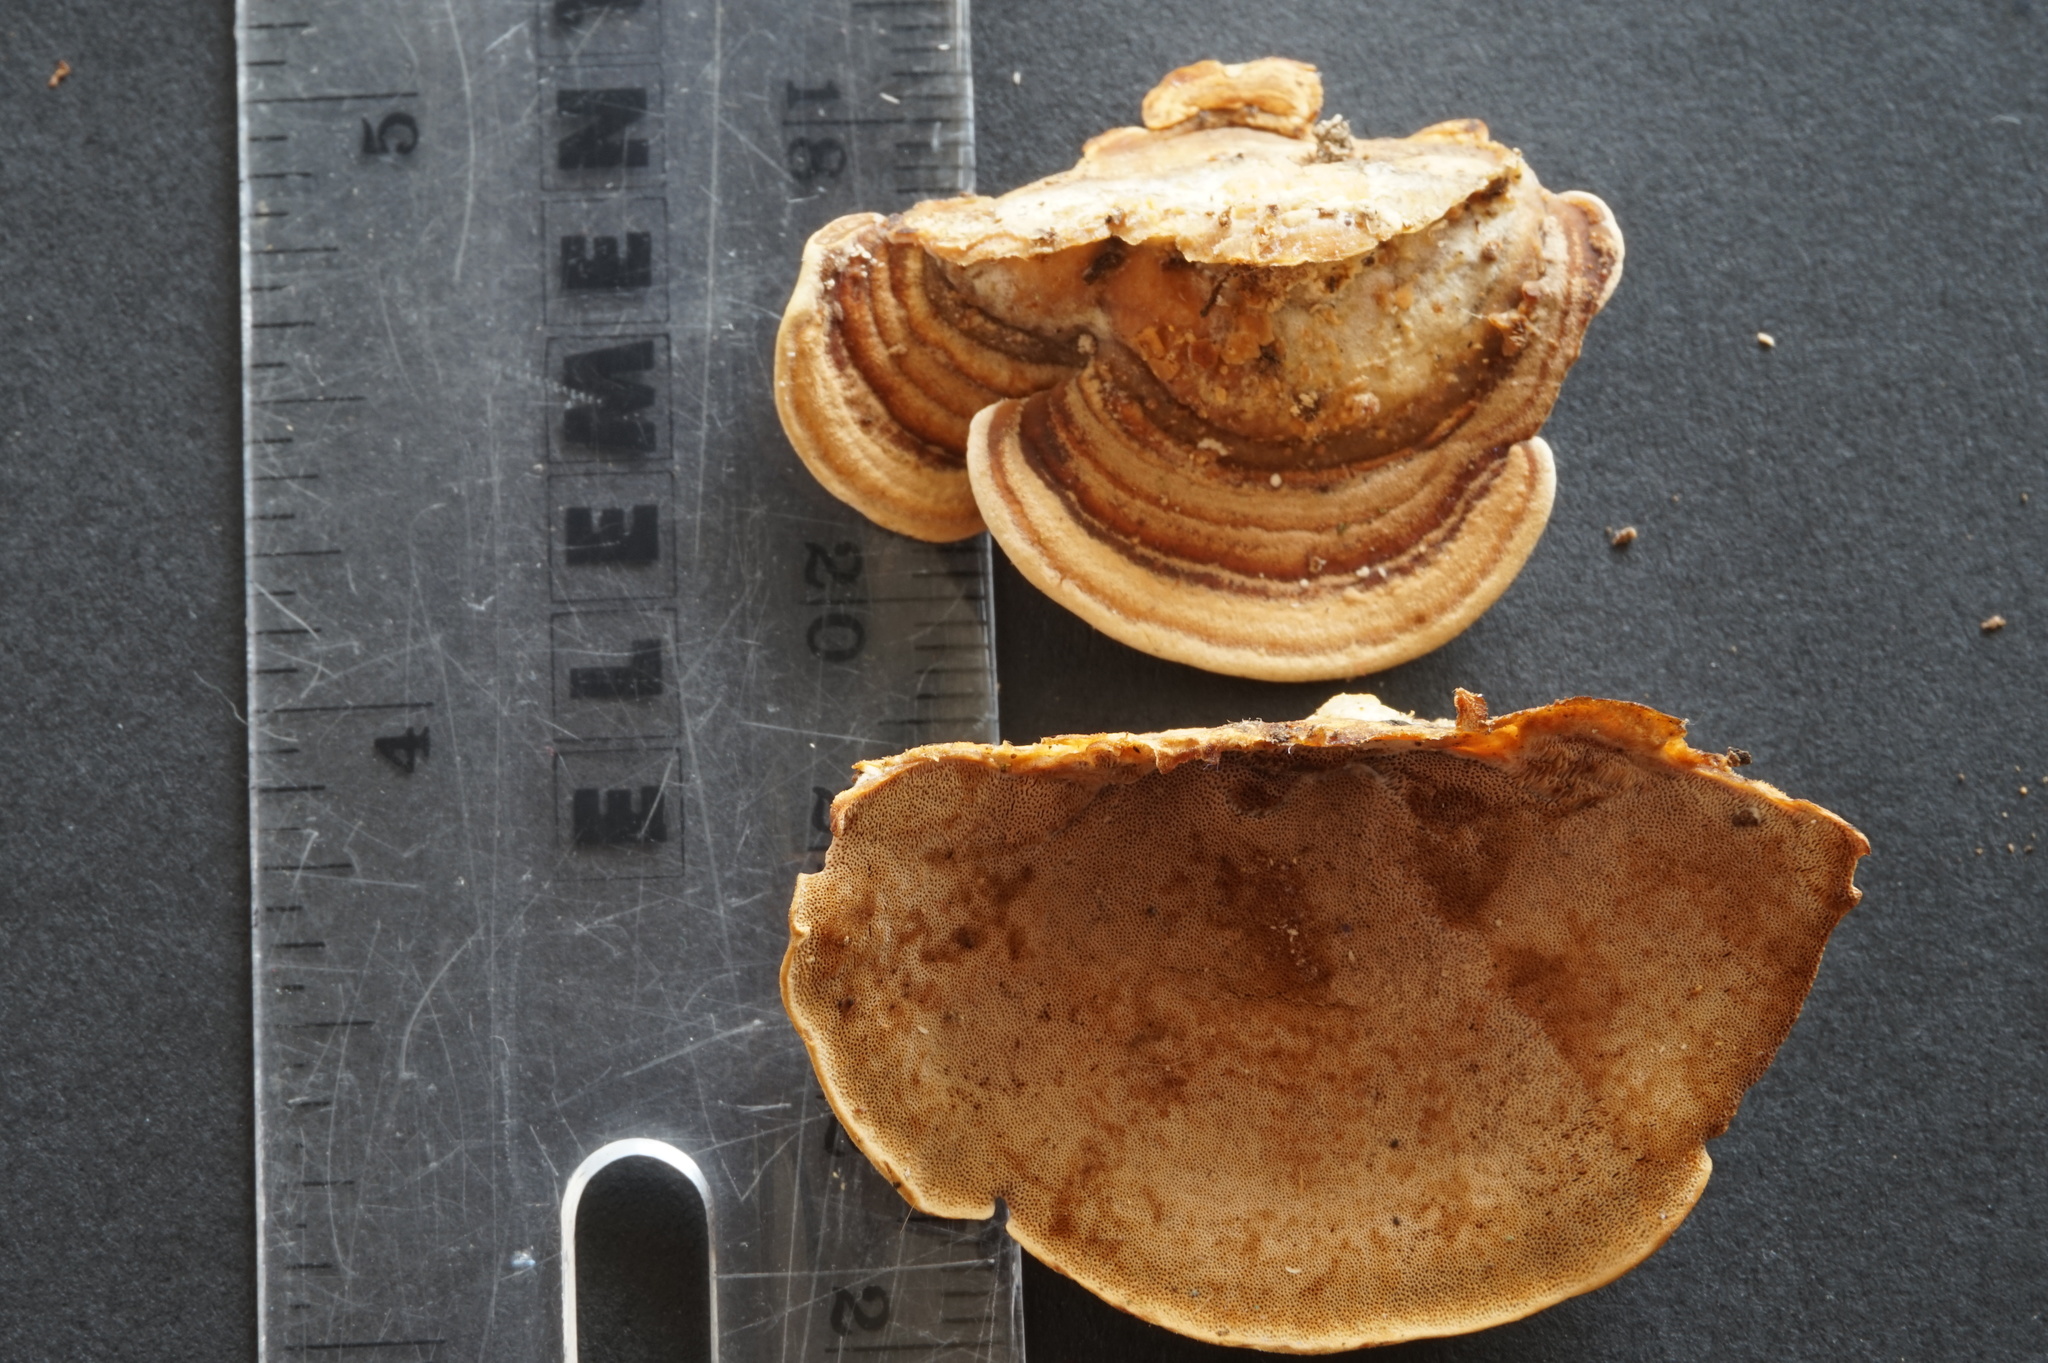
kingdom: Fungi
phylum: Basidiomycota
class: Agaricomycetes
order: Polyporales
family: Steccherinaceae
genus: Metuloidea
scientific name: Metuloidea fragrans
